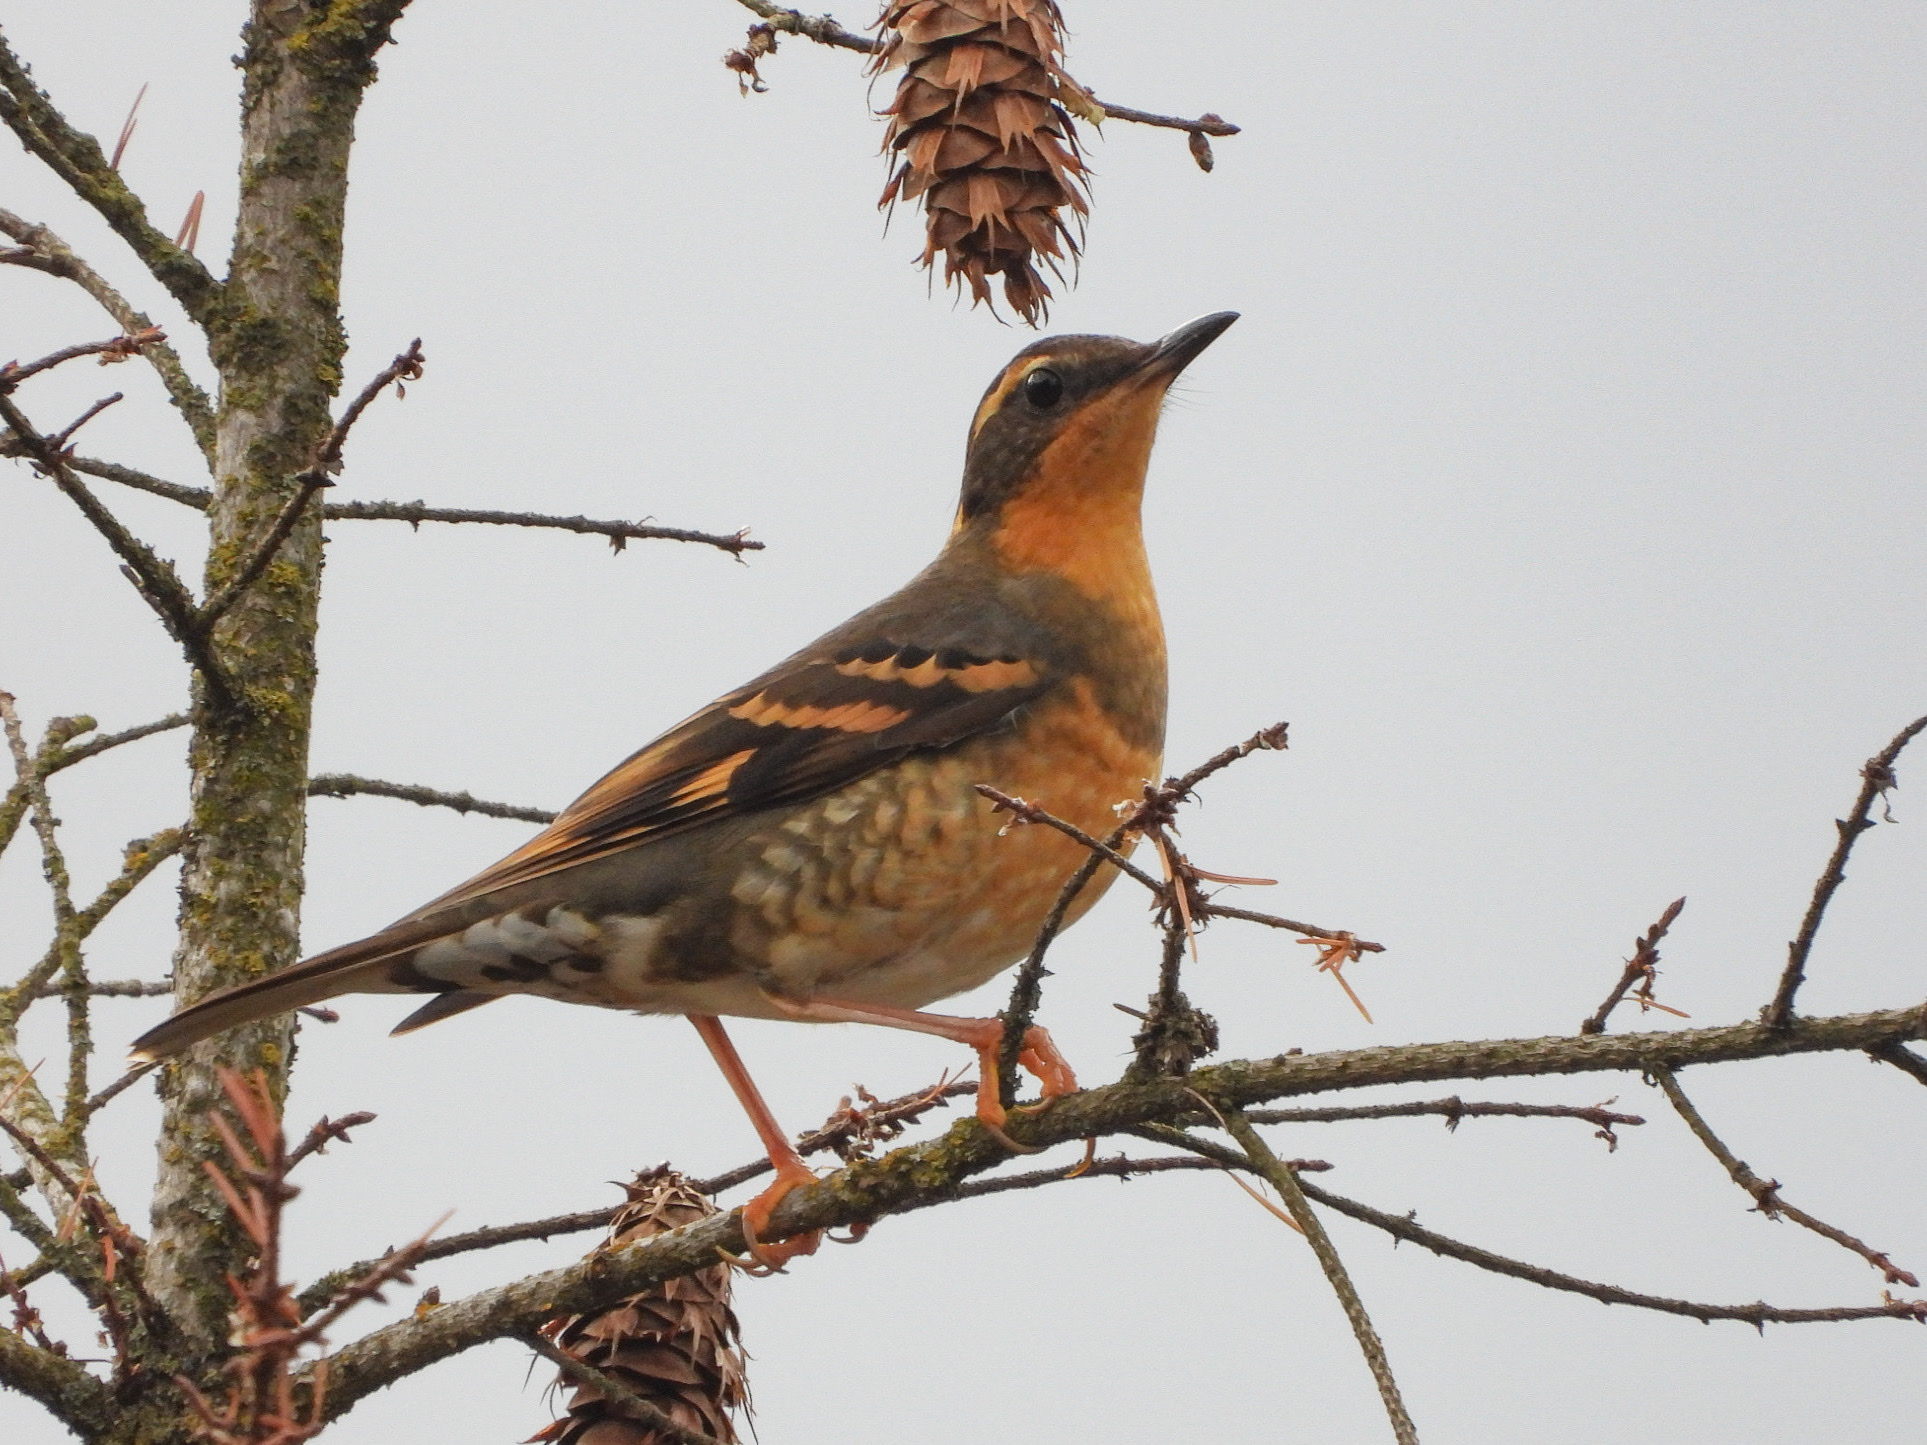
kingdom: Animalia
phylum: Chordata
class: Aves
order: Passeriformes
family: Turdidae
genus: Ixoreus
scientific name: Ixoreus naevius
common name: Varied thrush
